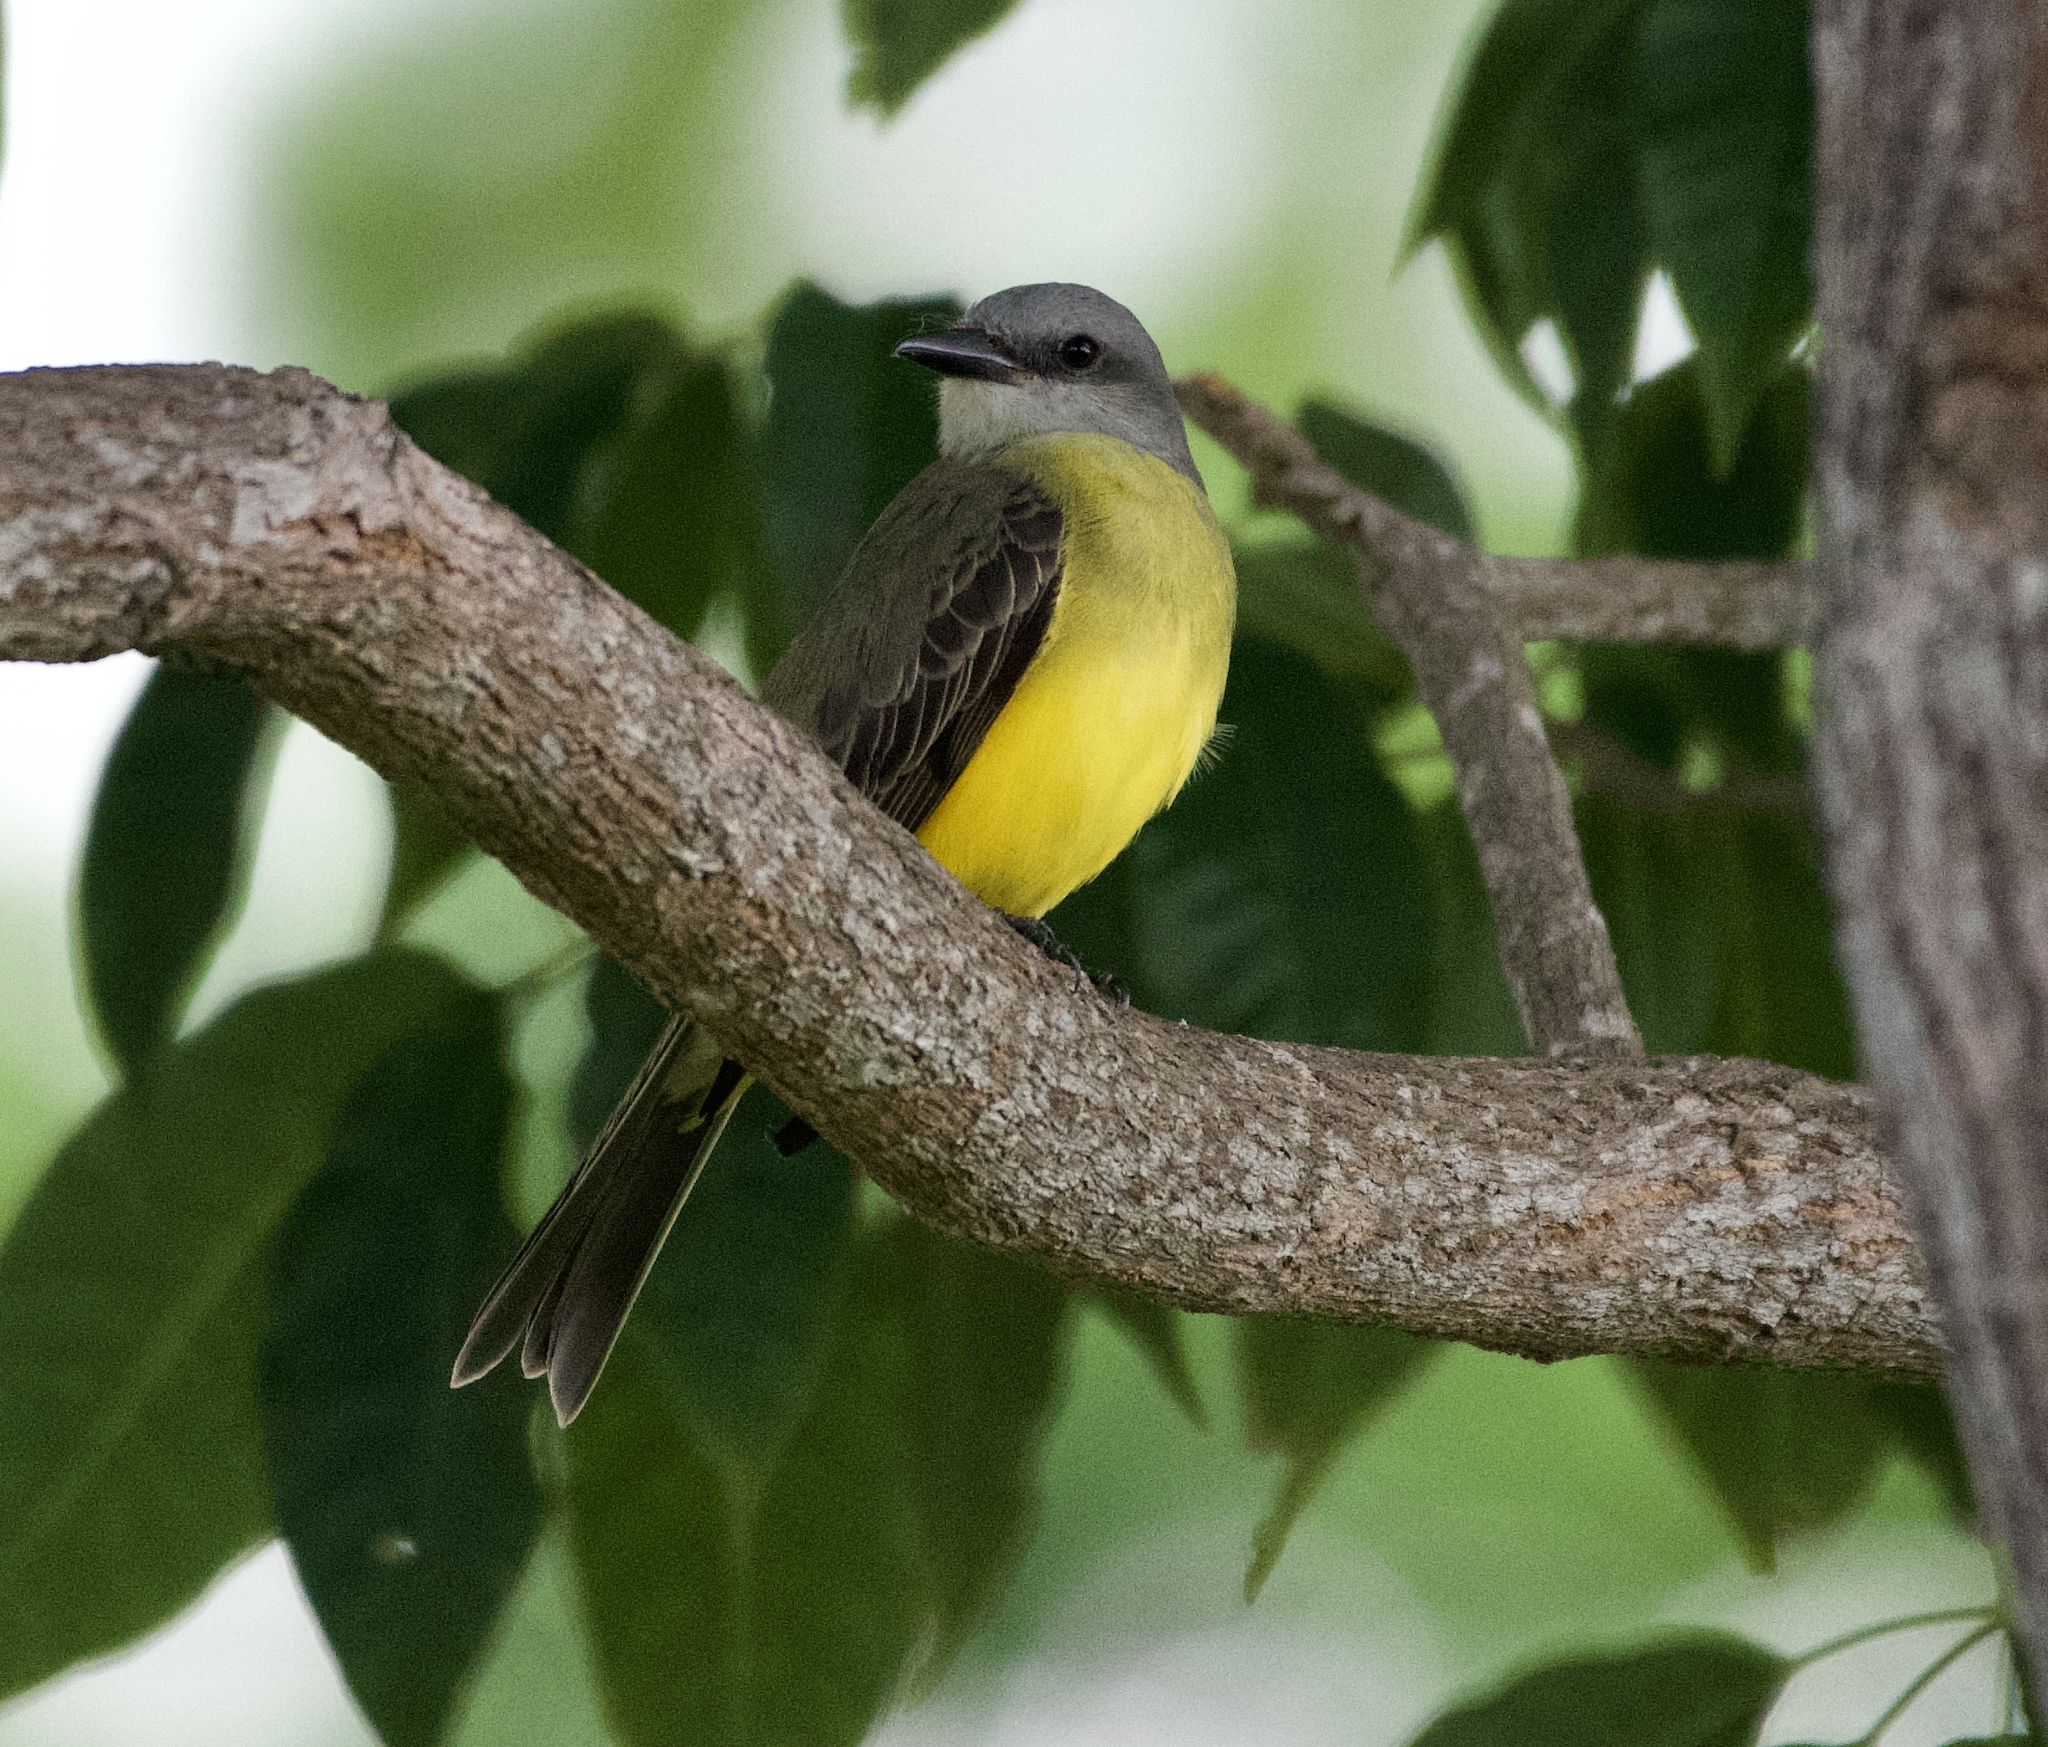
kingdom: Animalia
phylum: Chordata
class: Aves
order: Passeriformes
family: Tyrannidae
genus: Tyrannus
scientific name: Tyrannus melancholicus
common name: Tropical kingbird
